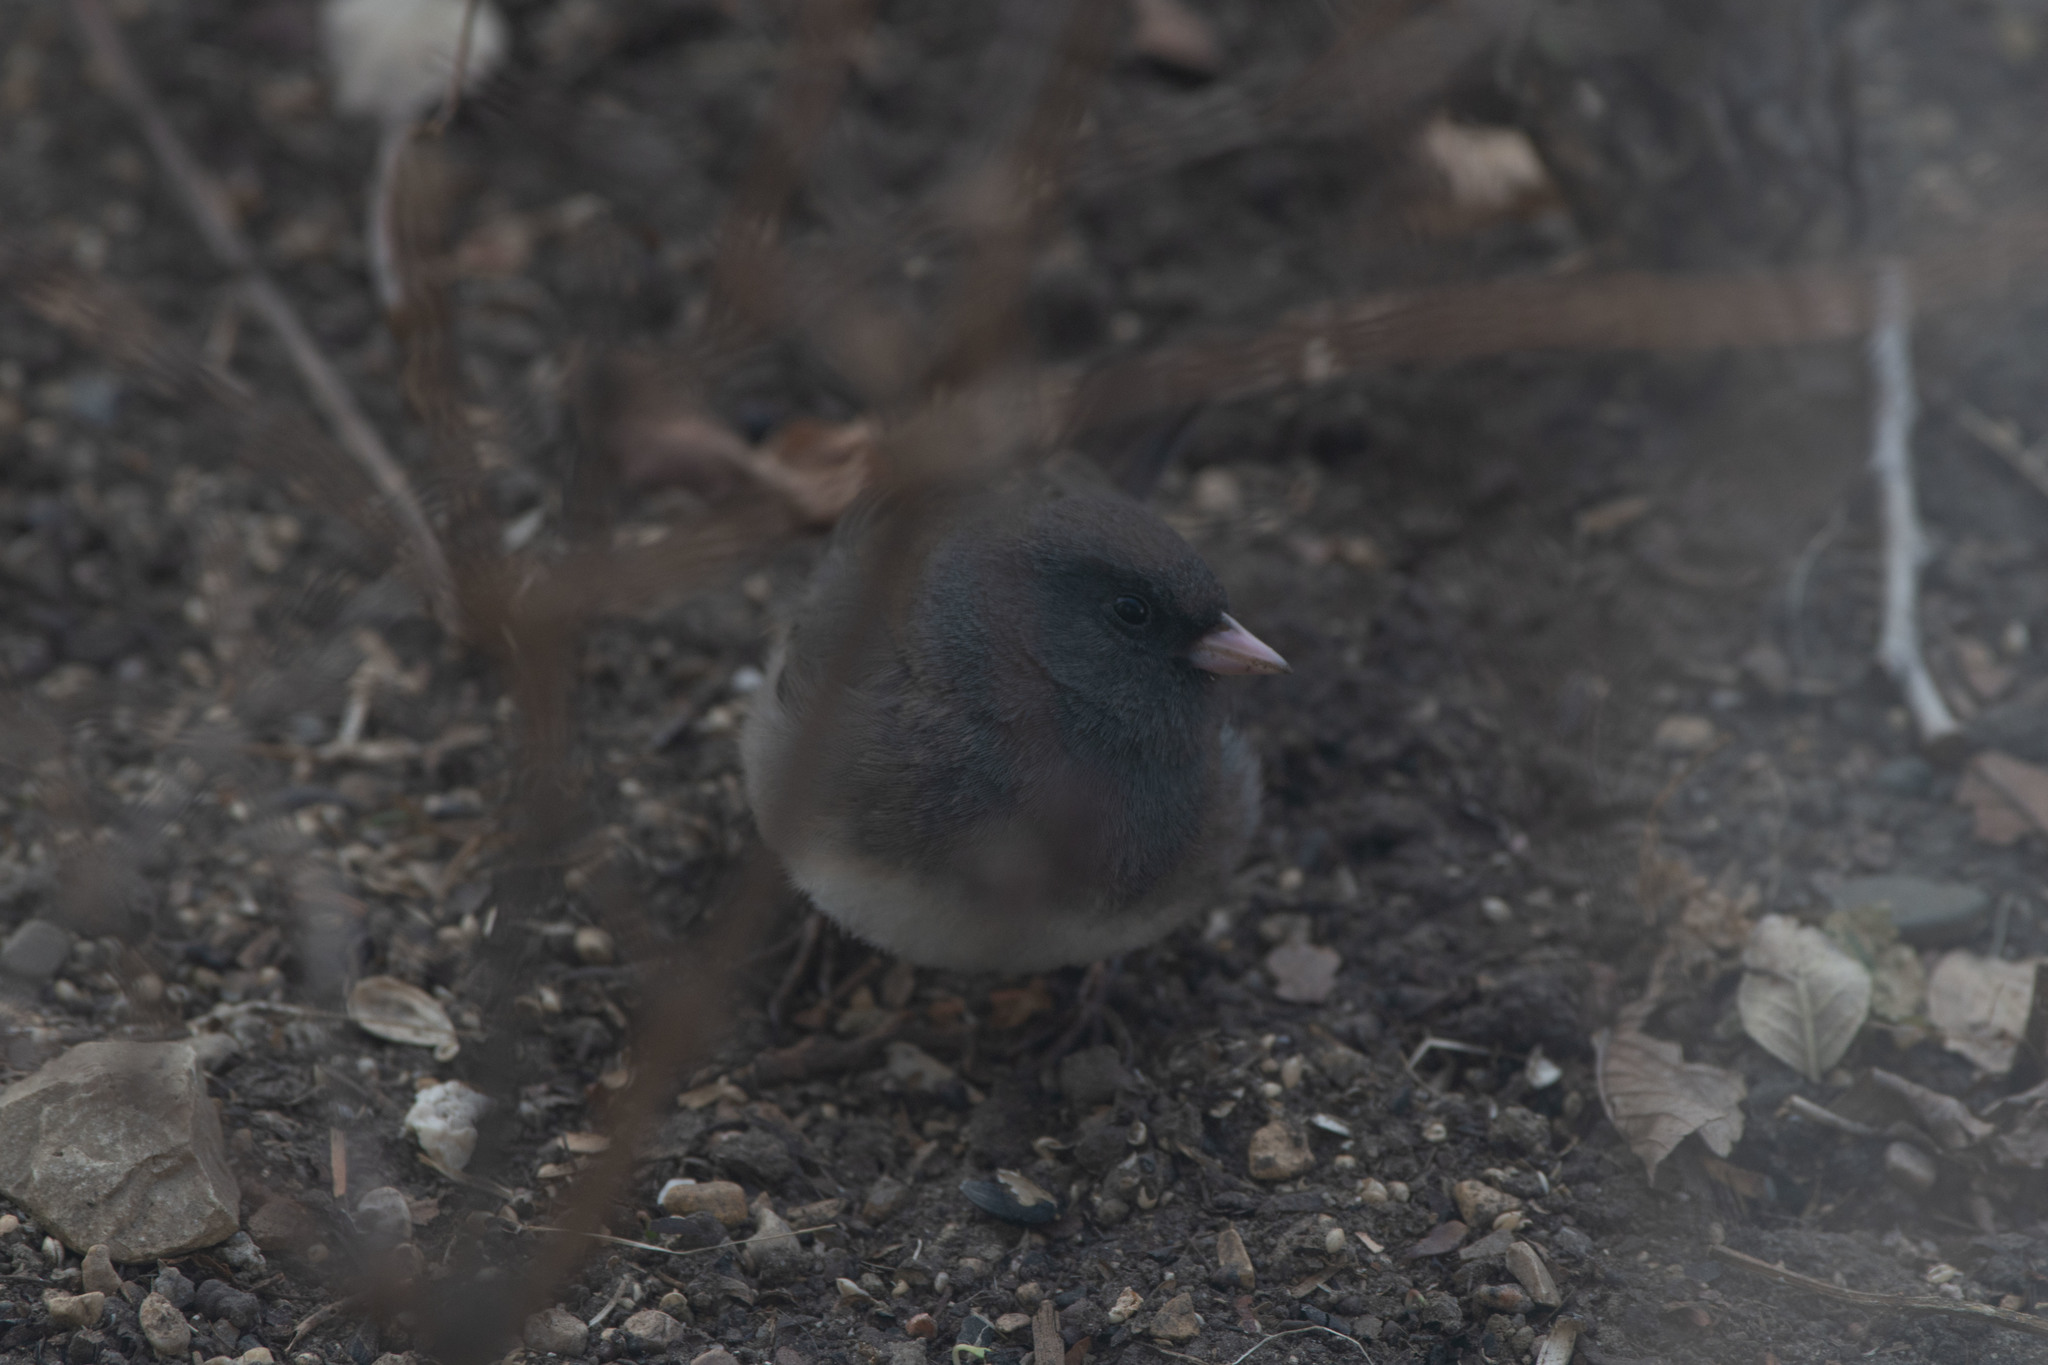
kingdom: Animalia
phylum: Chordata
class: Aves
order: Passeriformes
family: Passerellidae
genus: Junco
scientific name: Junco hyemalis
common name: Dark-eyed junco
